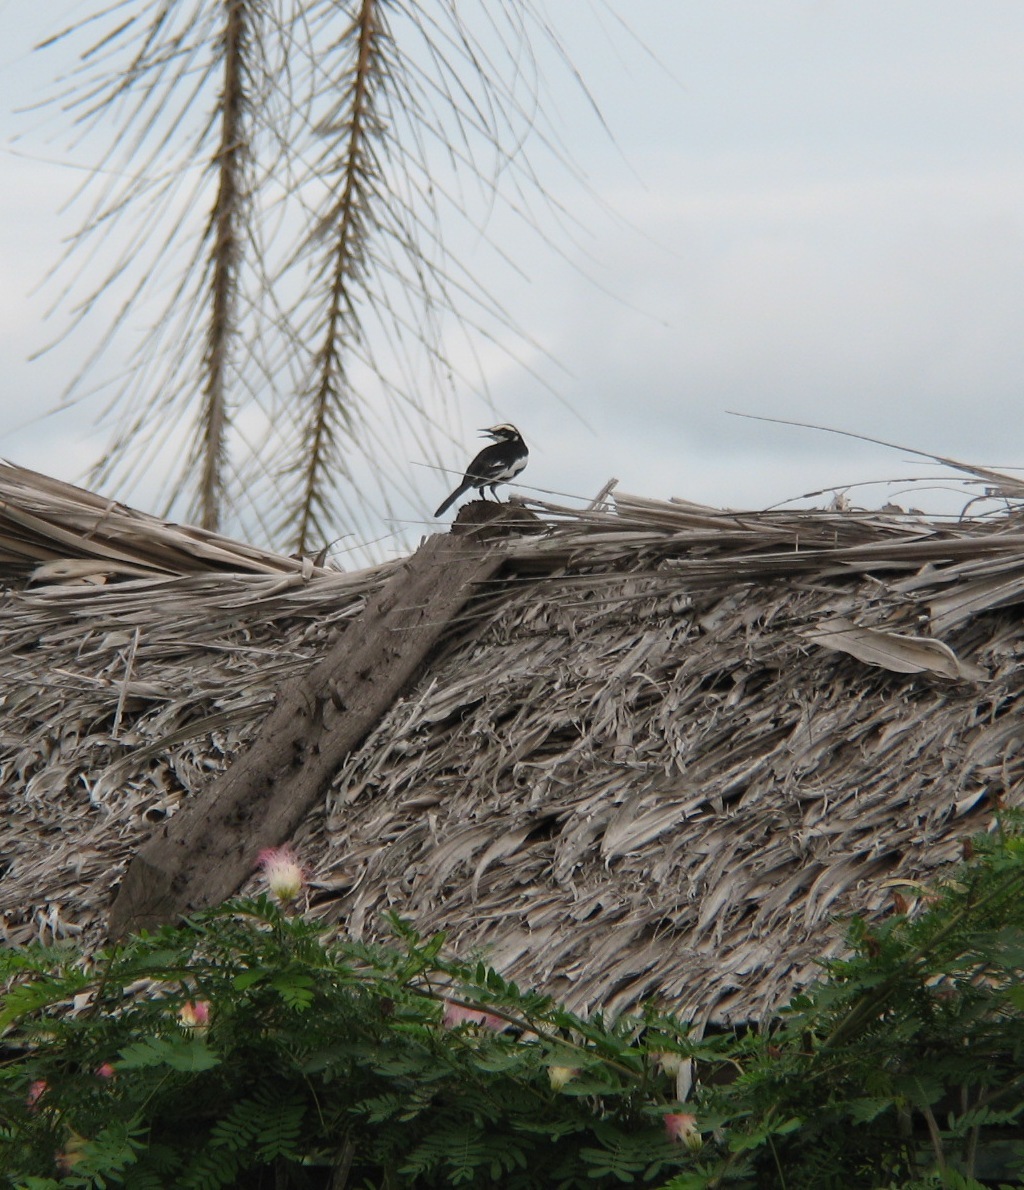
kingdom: Animalia
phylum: Chordata
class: Aves
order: Passeriformes
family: Motacillidae
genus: Motacilla
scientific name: Motacilla aguimp
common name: African pied wagtail
